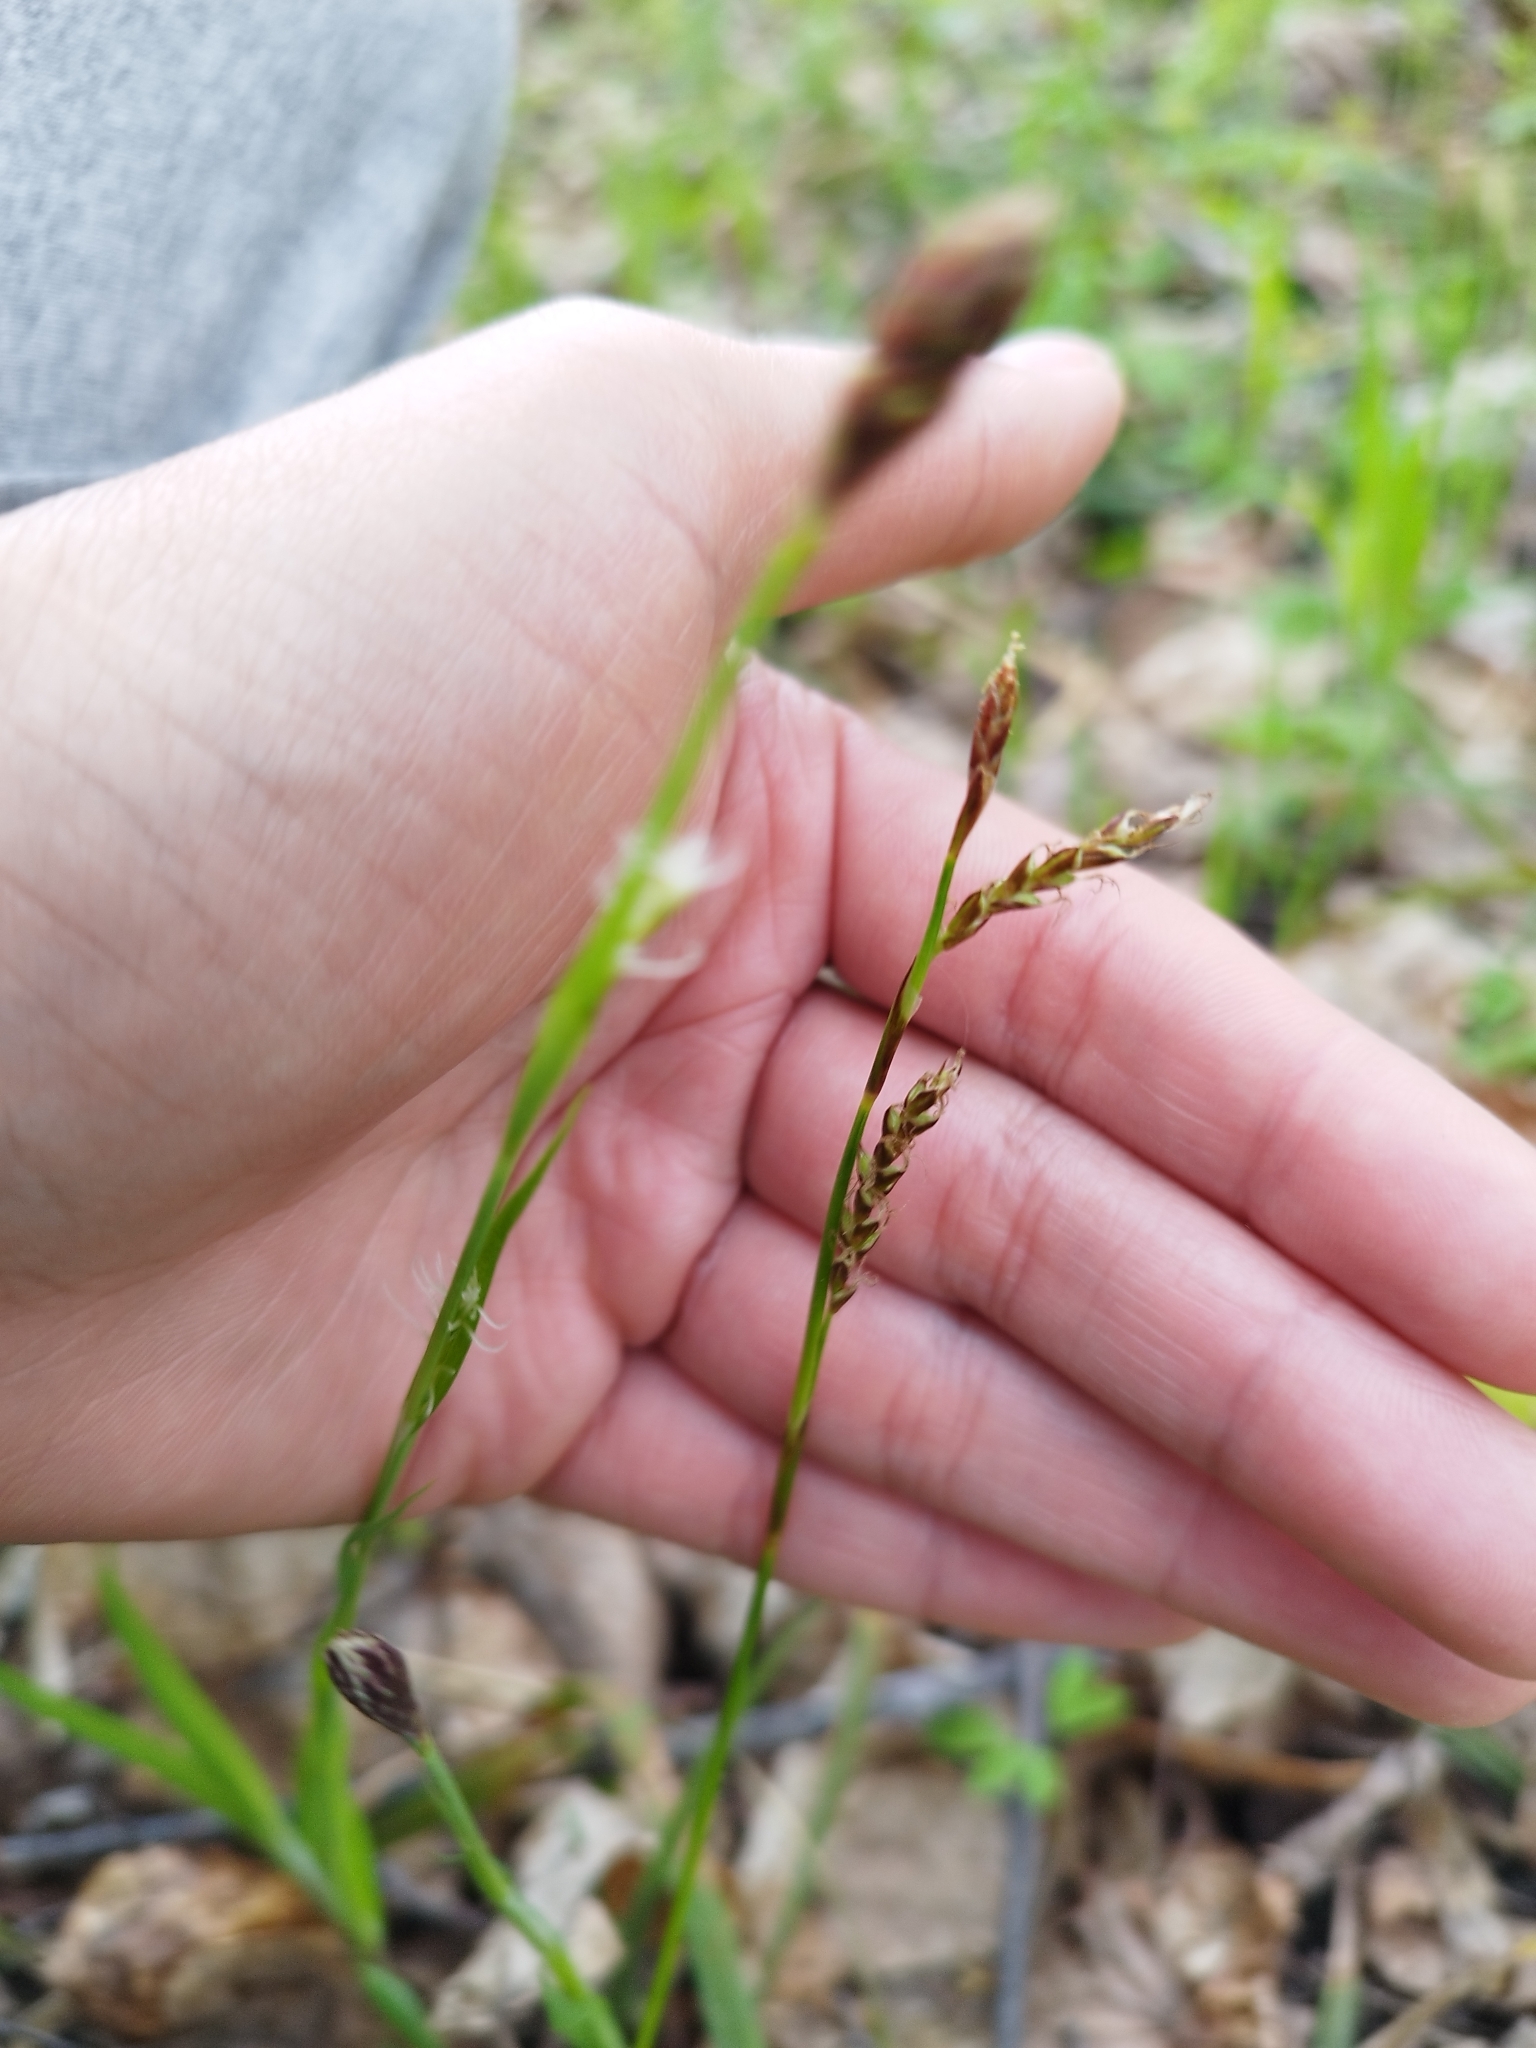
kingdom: Plantae
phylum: Tracheophyta
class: Liliopsida
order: Poales
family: Cyperaceae
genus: Carex
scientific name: Carex pilosa
